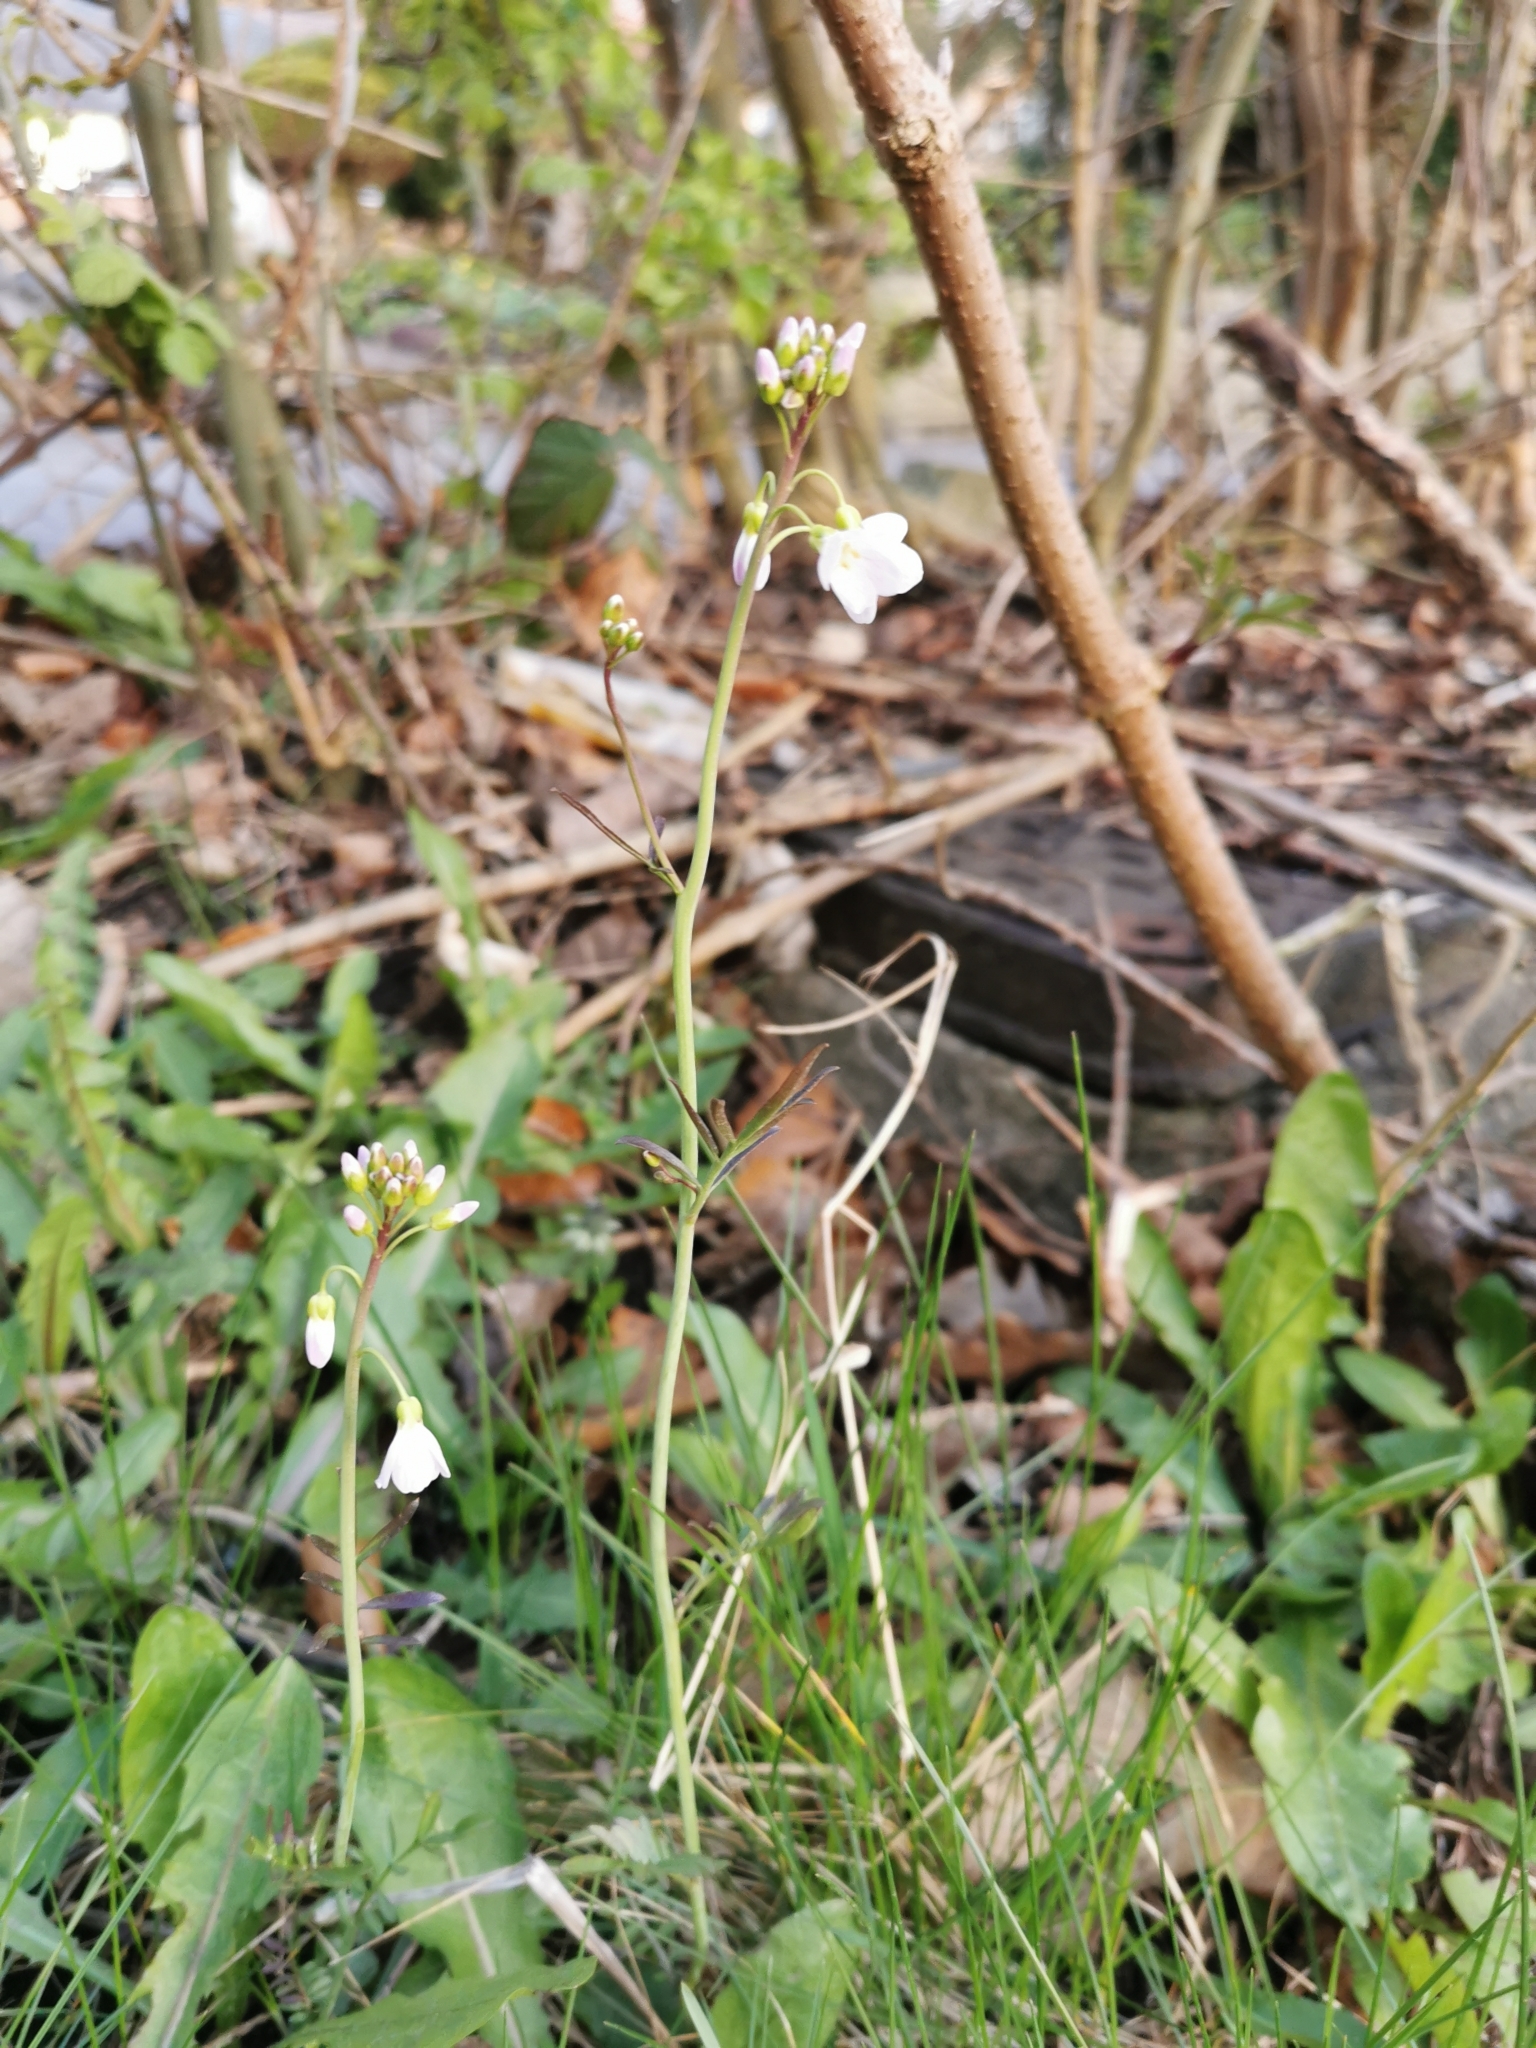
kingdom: Plantae
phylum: Tracheophyta
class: Magnoliopsida
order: Brassicales
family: Brassicaceae
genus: Cardamine
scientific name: Cardamine pratensis
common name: Cuckoo flower
